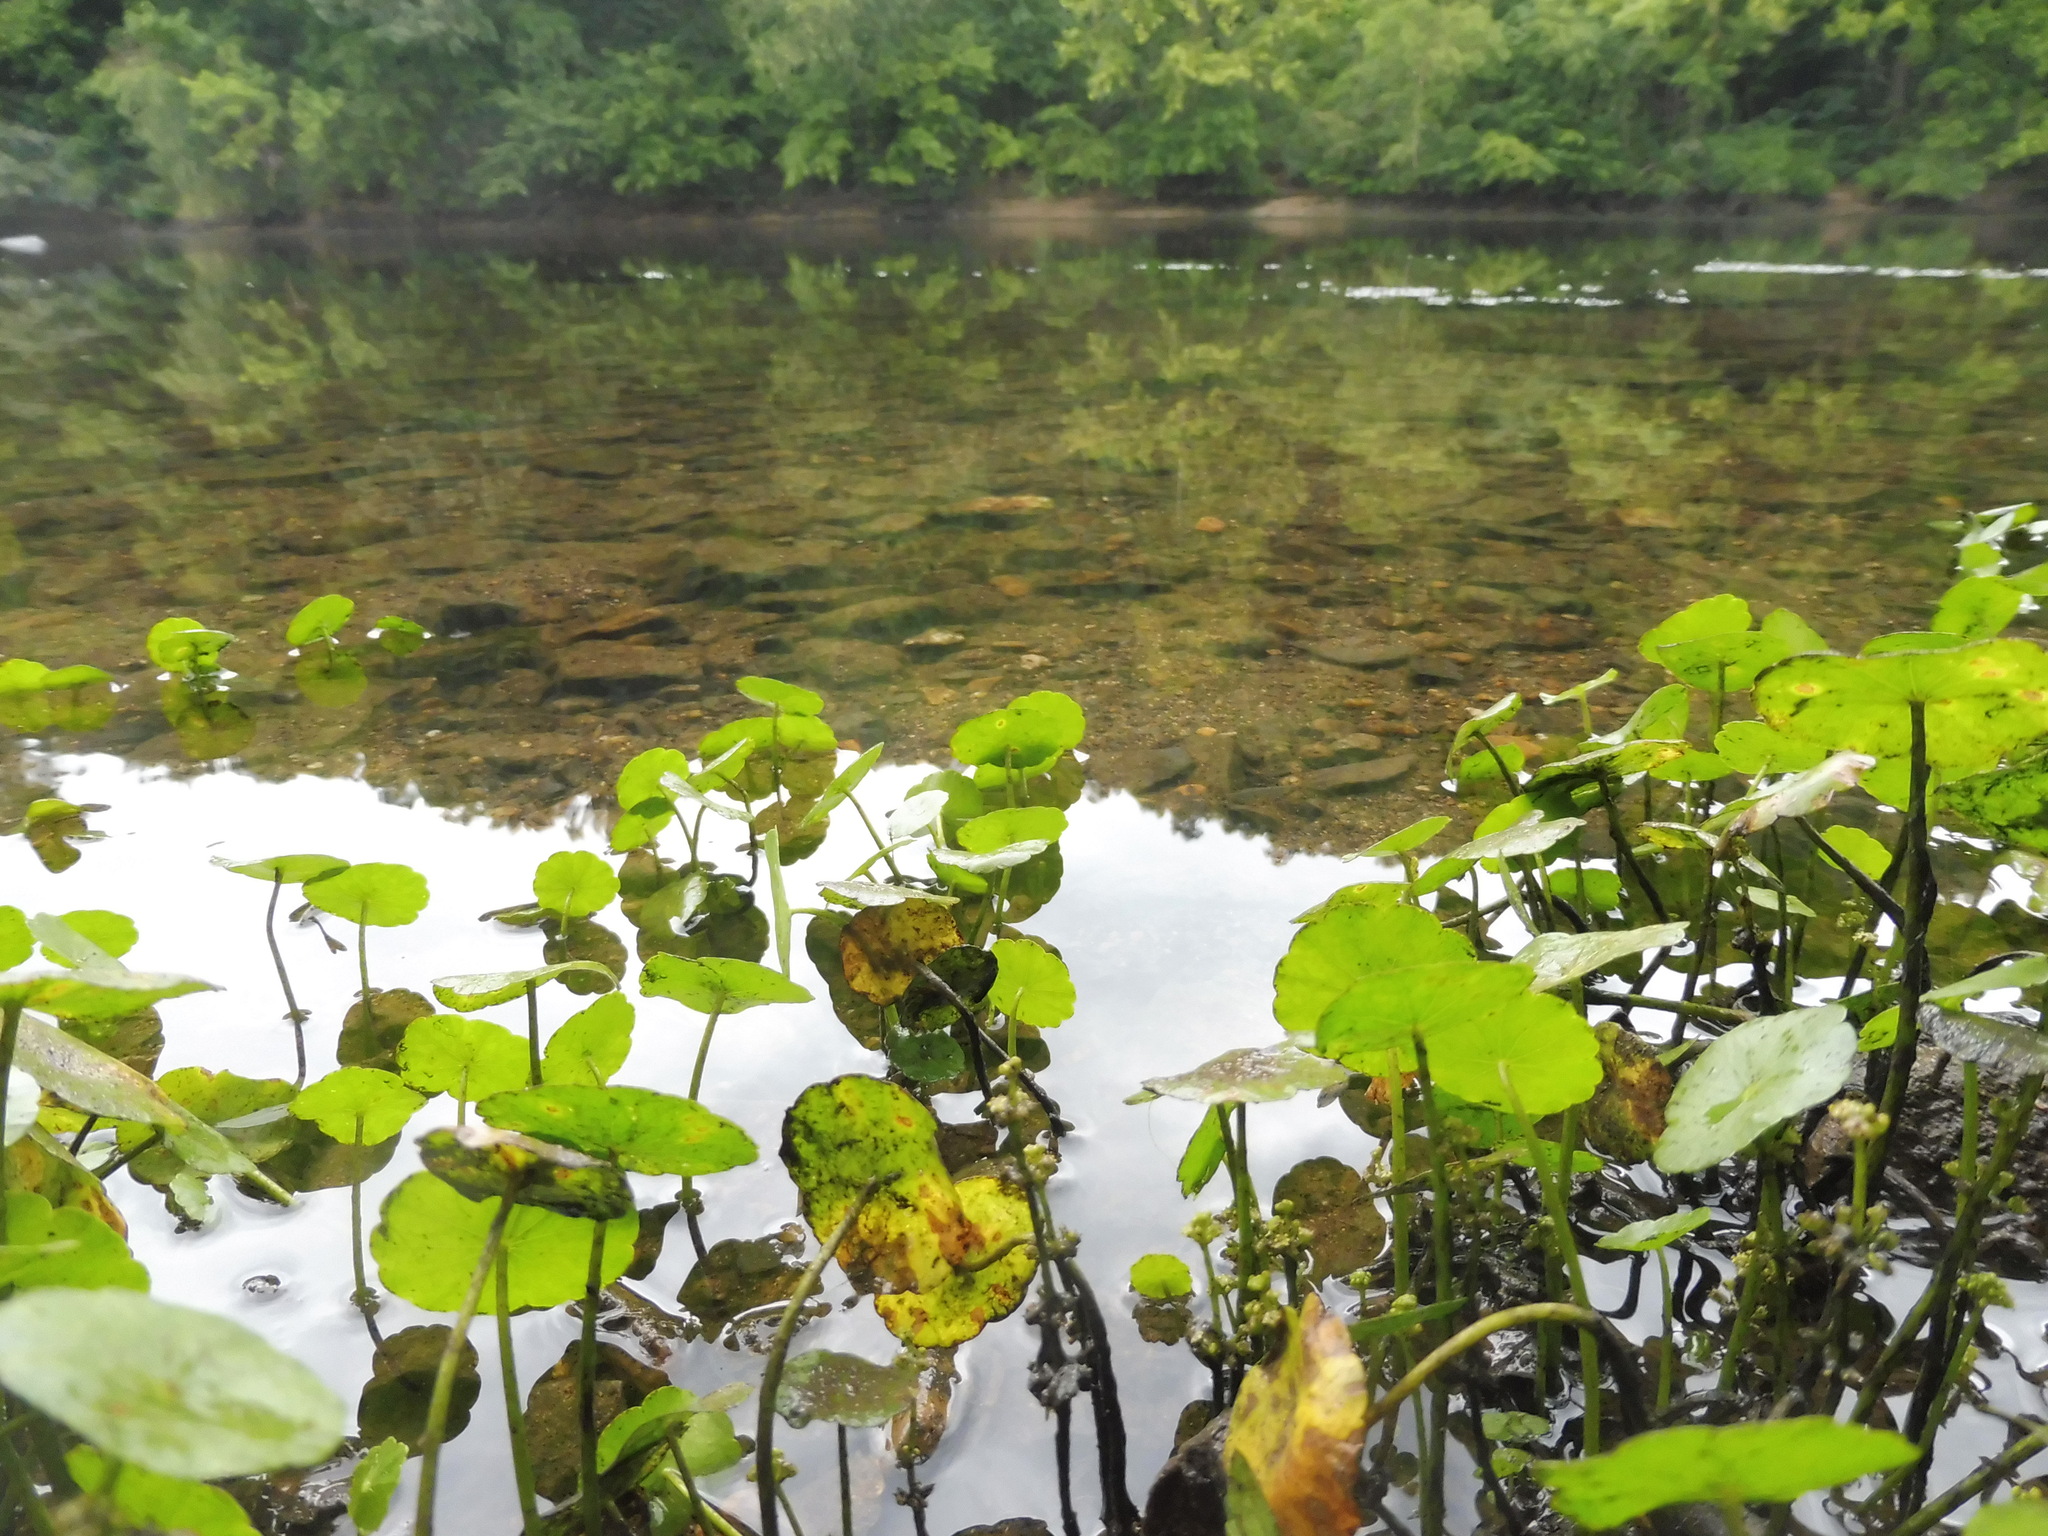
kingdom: Plantae
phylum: Tracheophyta
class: Magnoliopsida
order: Apiales
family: Araliaceae
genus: Hydrocotyle
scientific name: Hydrocotyle prolifera
